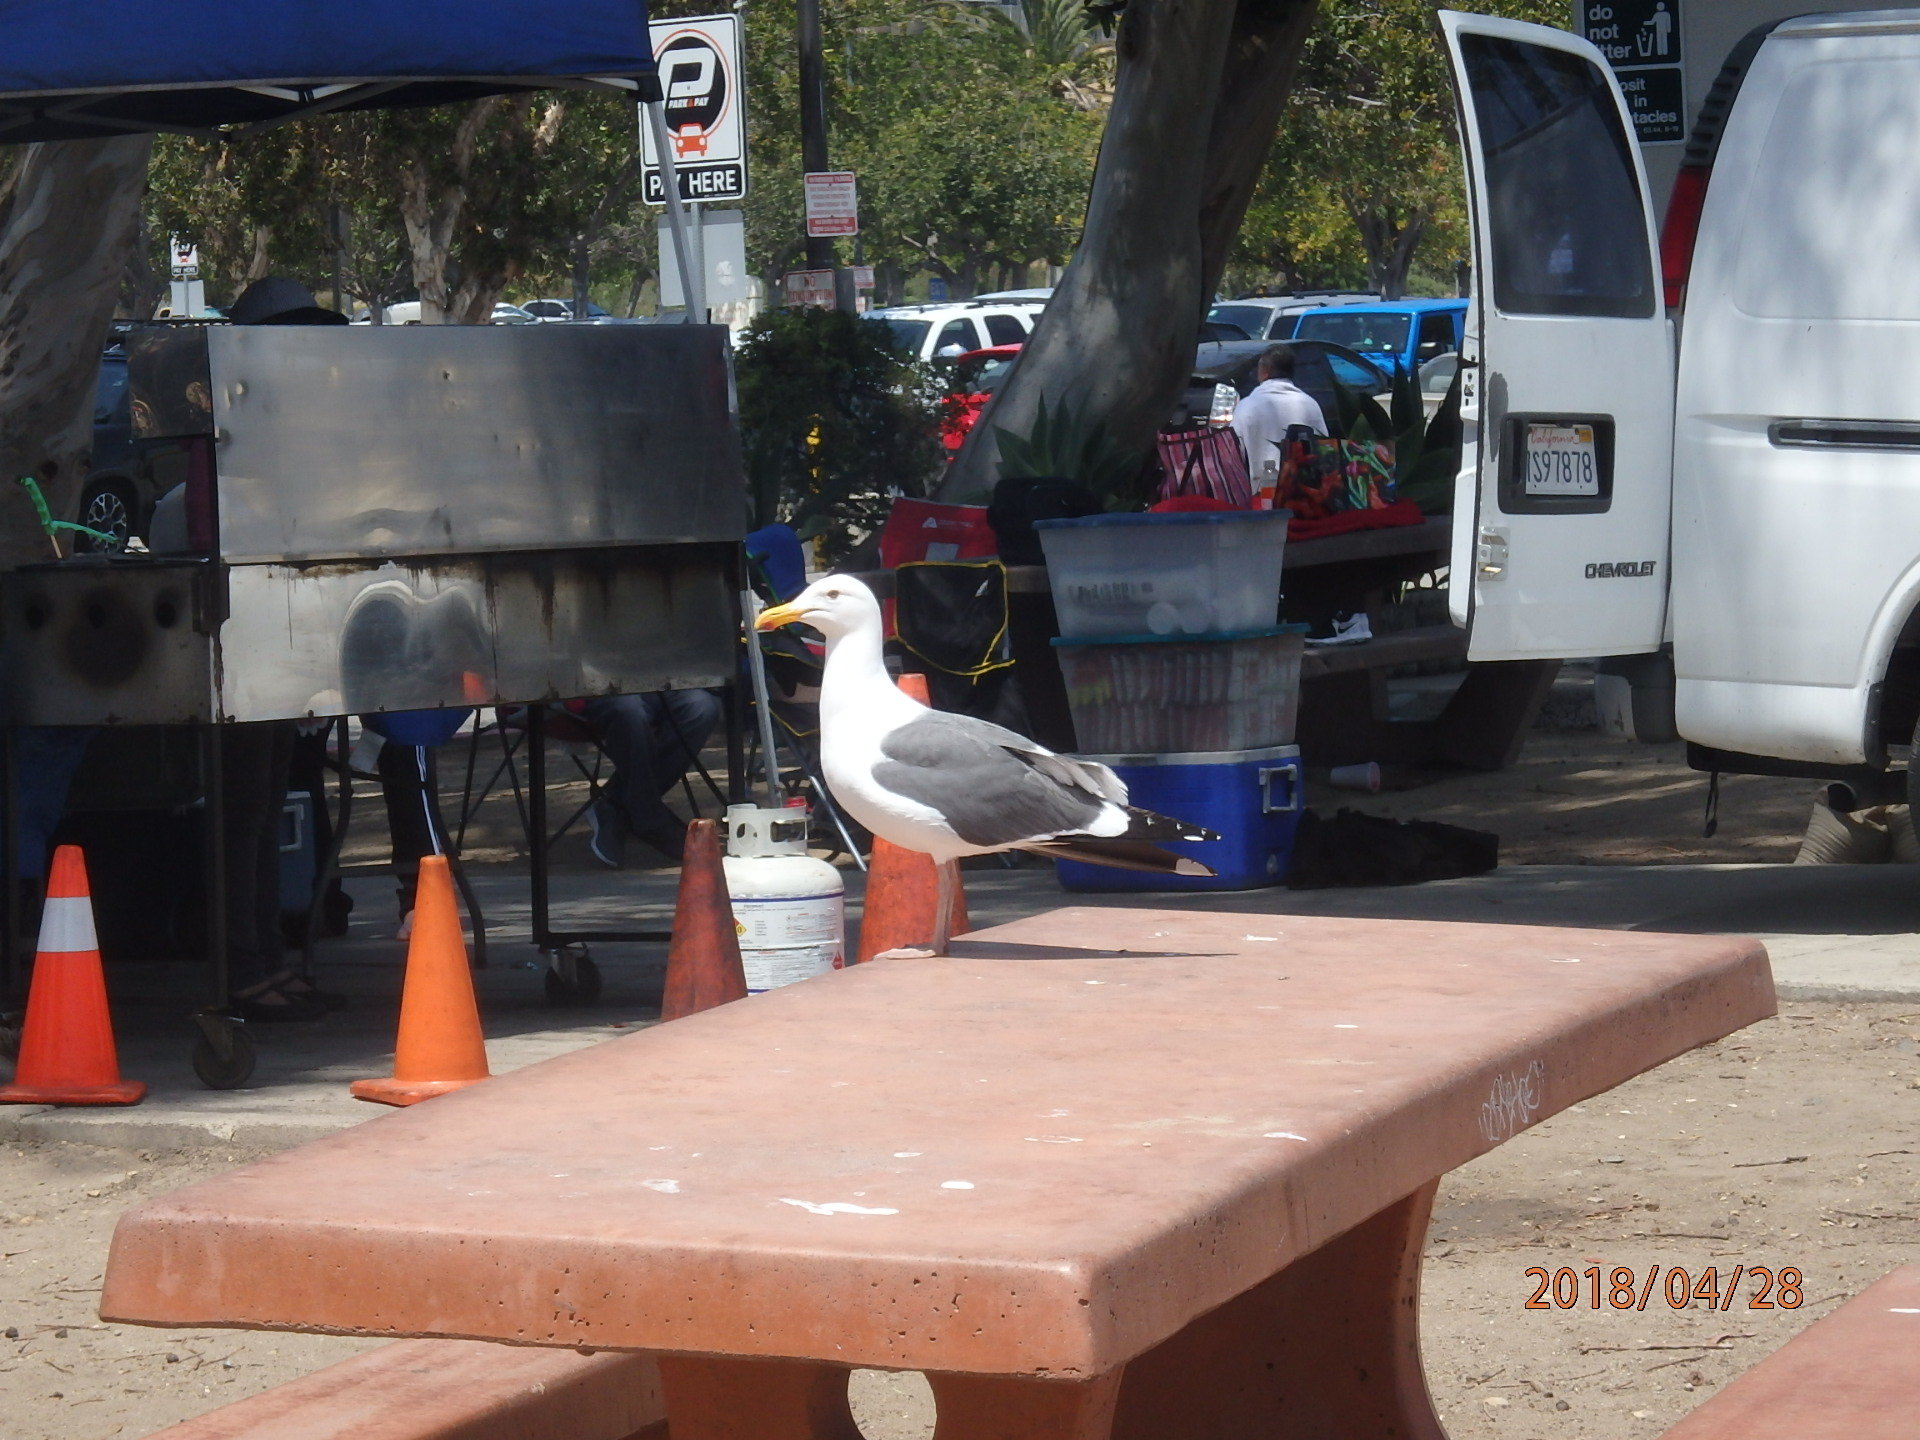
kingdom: Animalia
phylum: Chordata
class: Aves
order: Charadriiformes
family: Laridae
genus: Larus
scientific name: Larus occidentalis
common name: Western gull
